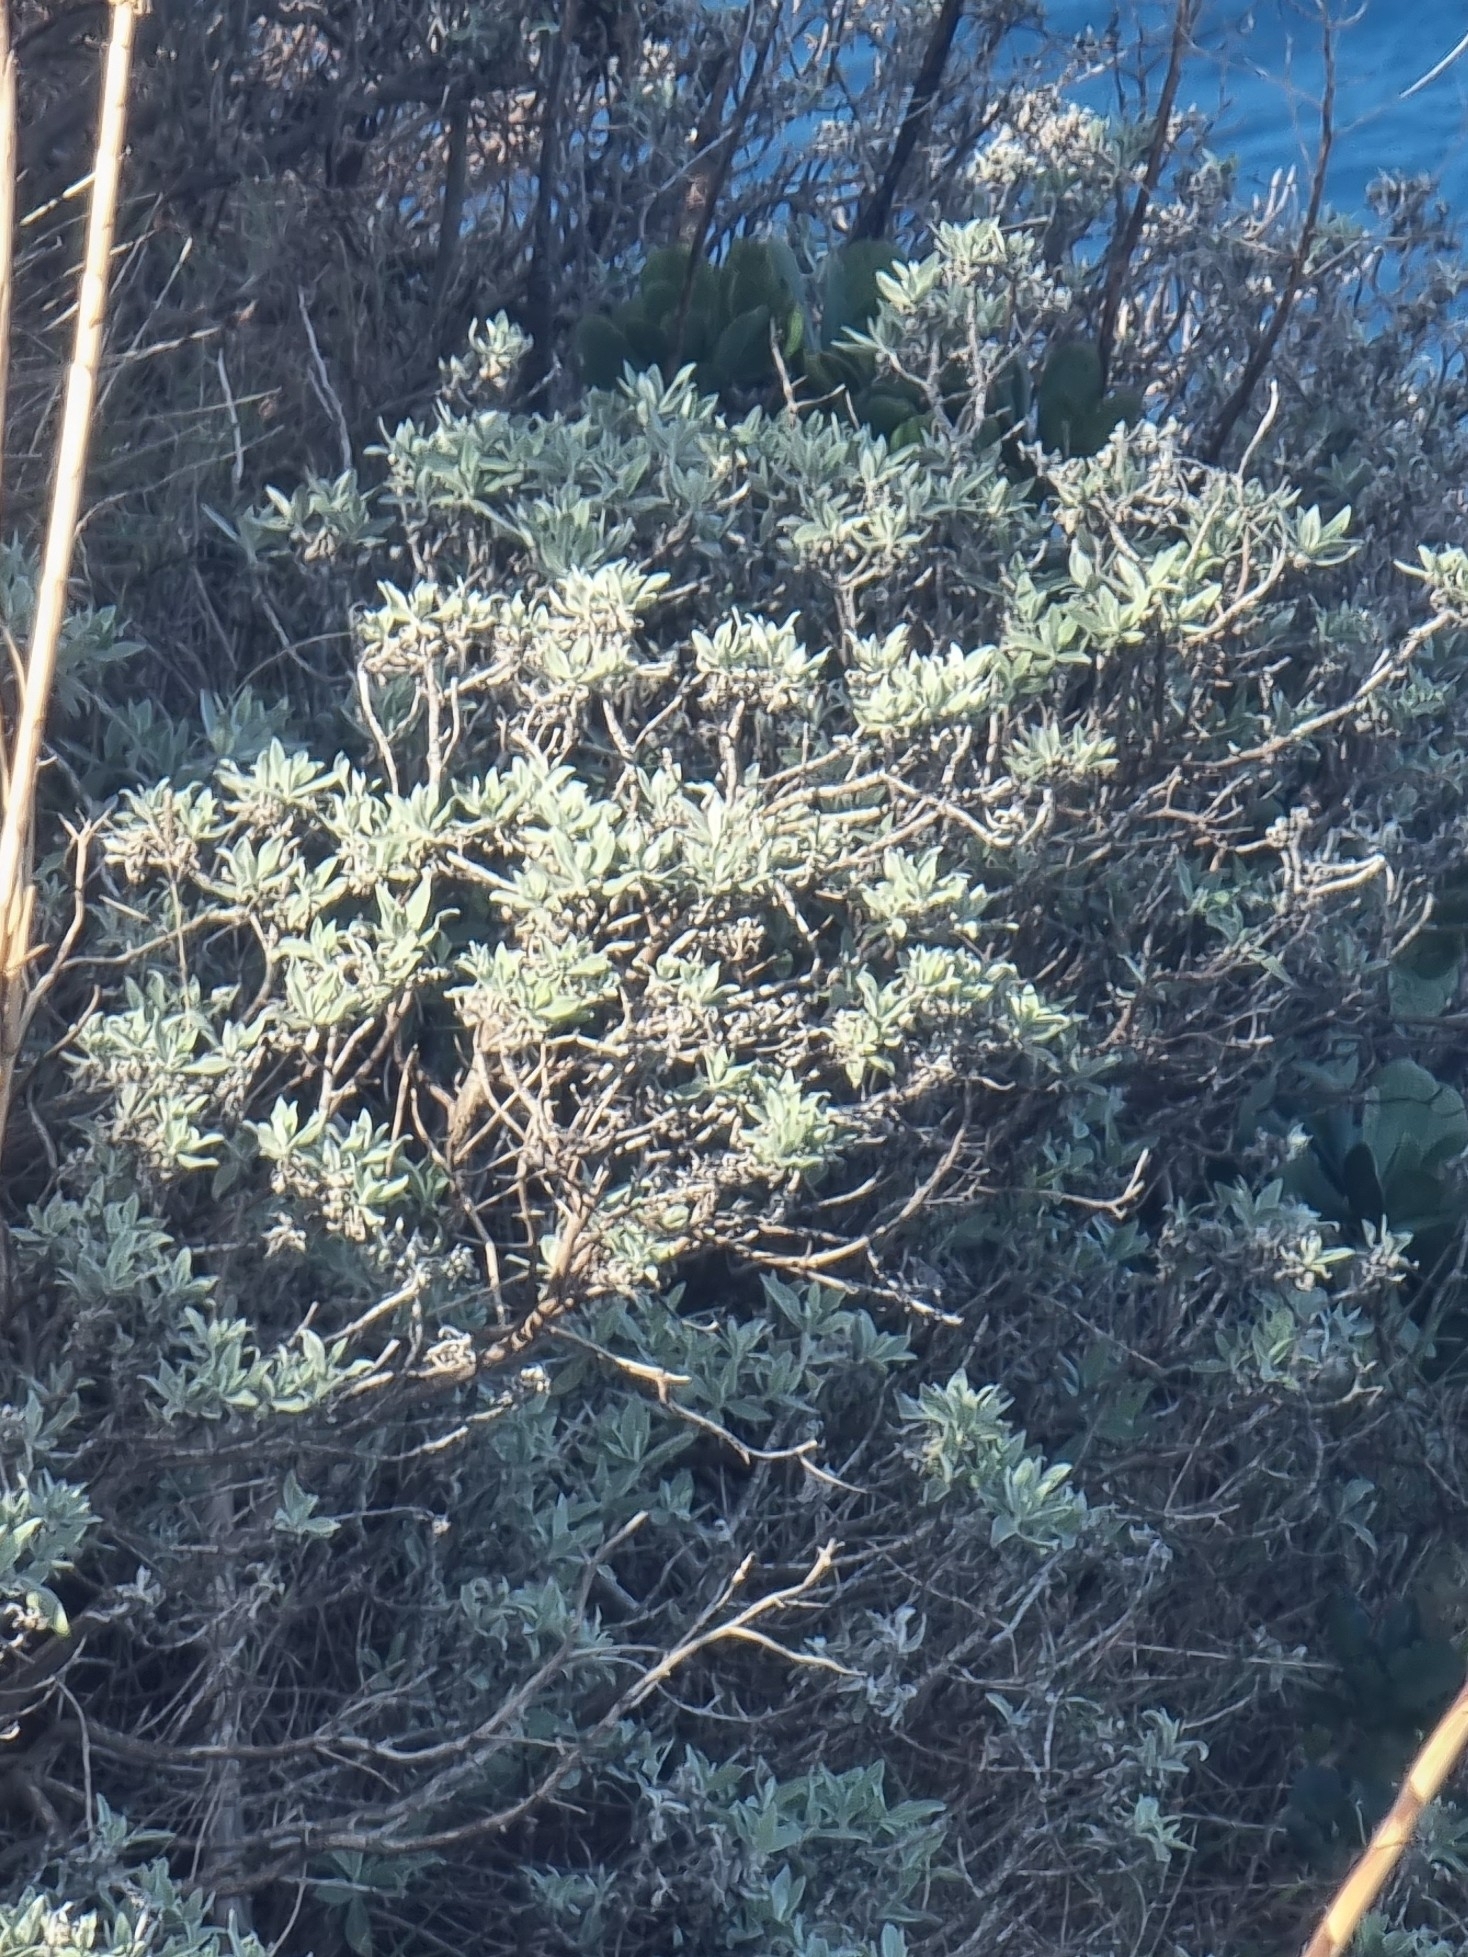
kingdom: Plantae
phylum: Tracheophyta
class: Magnoliopsida
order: Asterales
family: Asteraceae
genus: Helichrysum
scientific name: Helichrysum melaleucum
